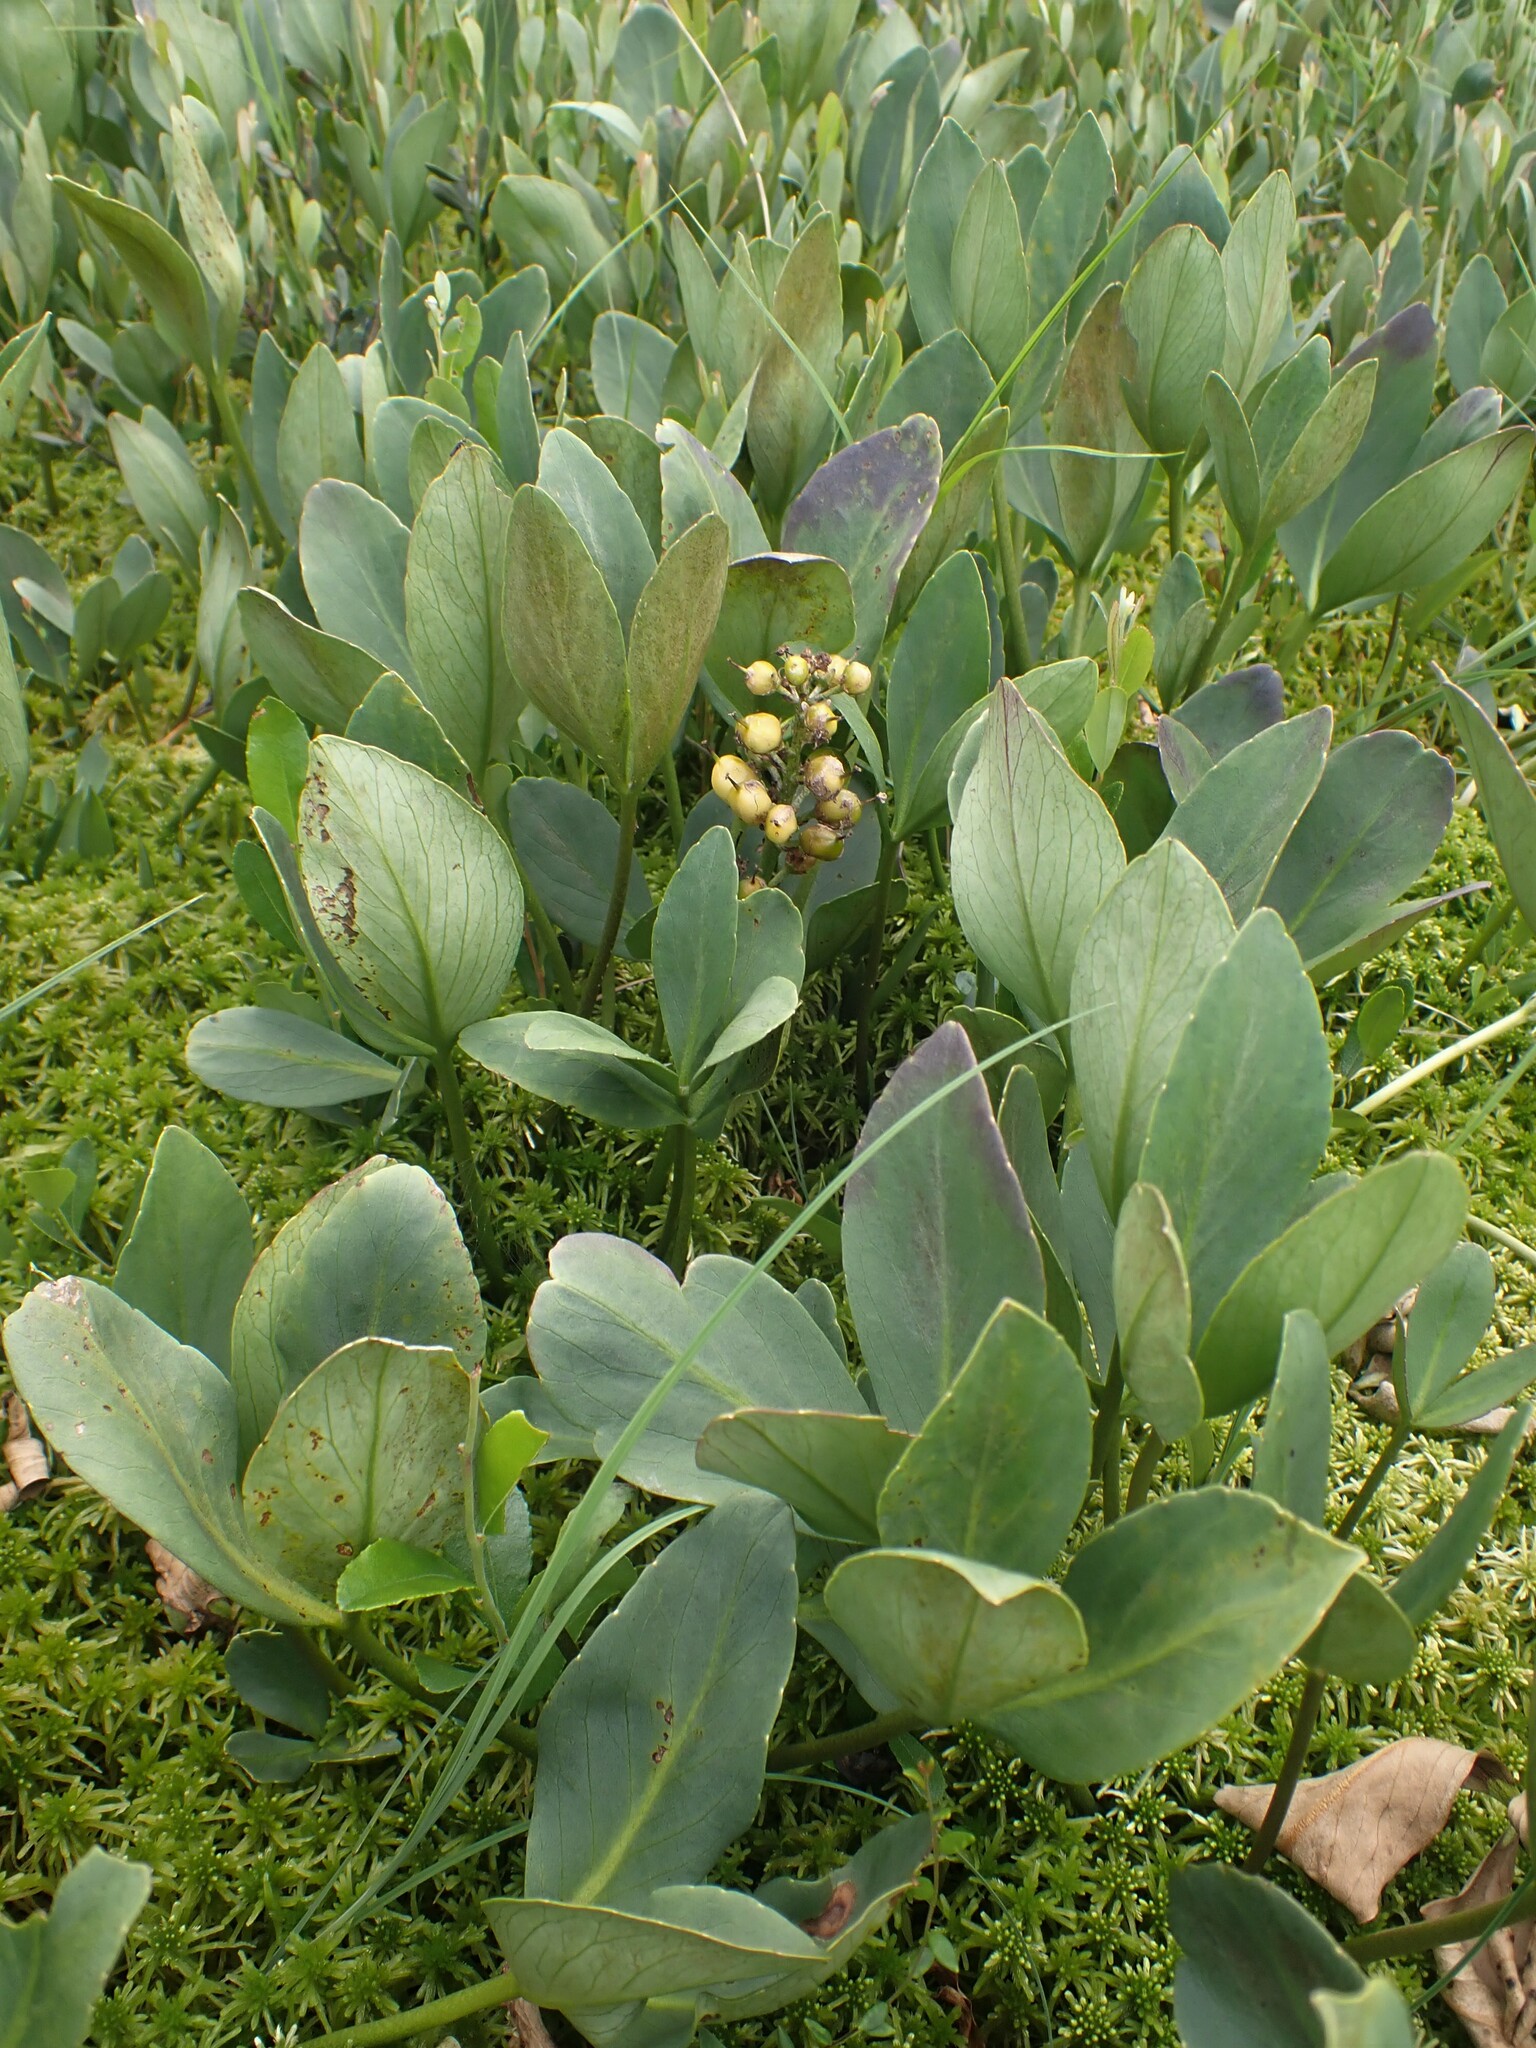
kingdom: Plantae
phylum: Tracheophyta
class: Magnoliopsida
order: Asterales
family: Menyanthaceae
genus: Menyanthes
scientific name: Menyanthes trifoliata
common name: Bogbean
